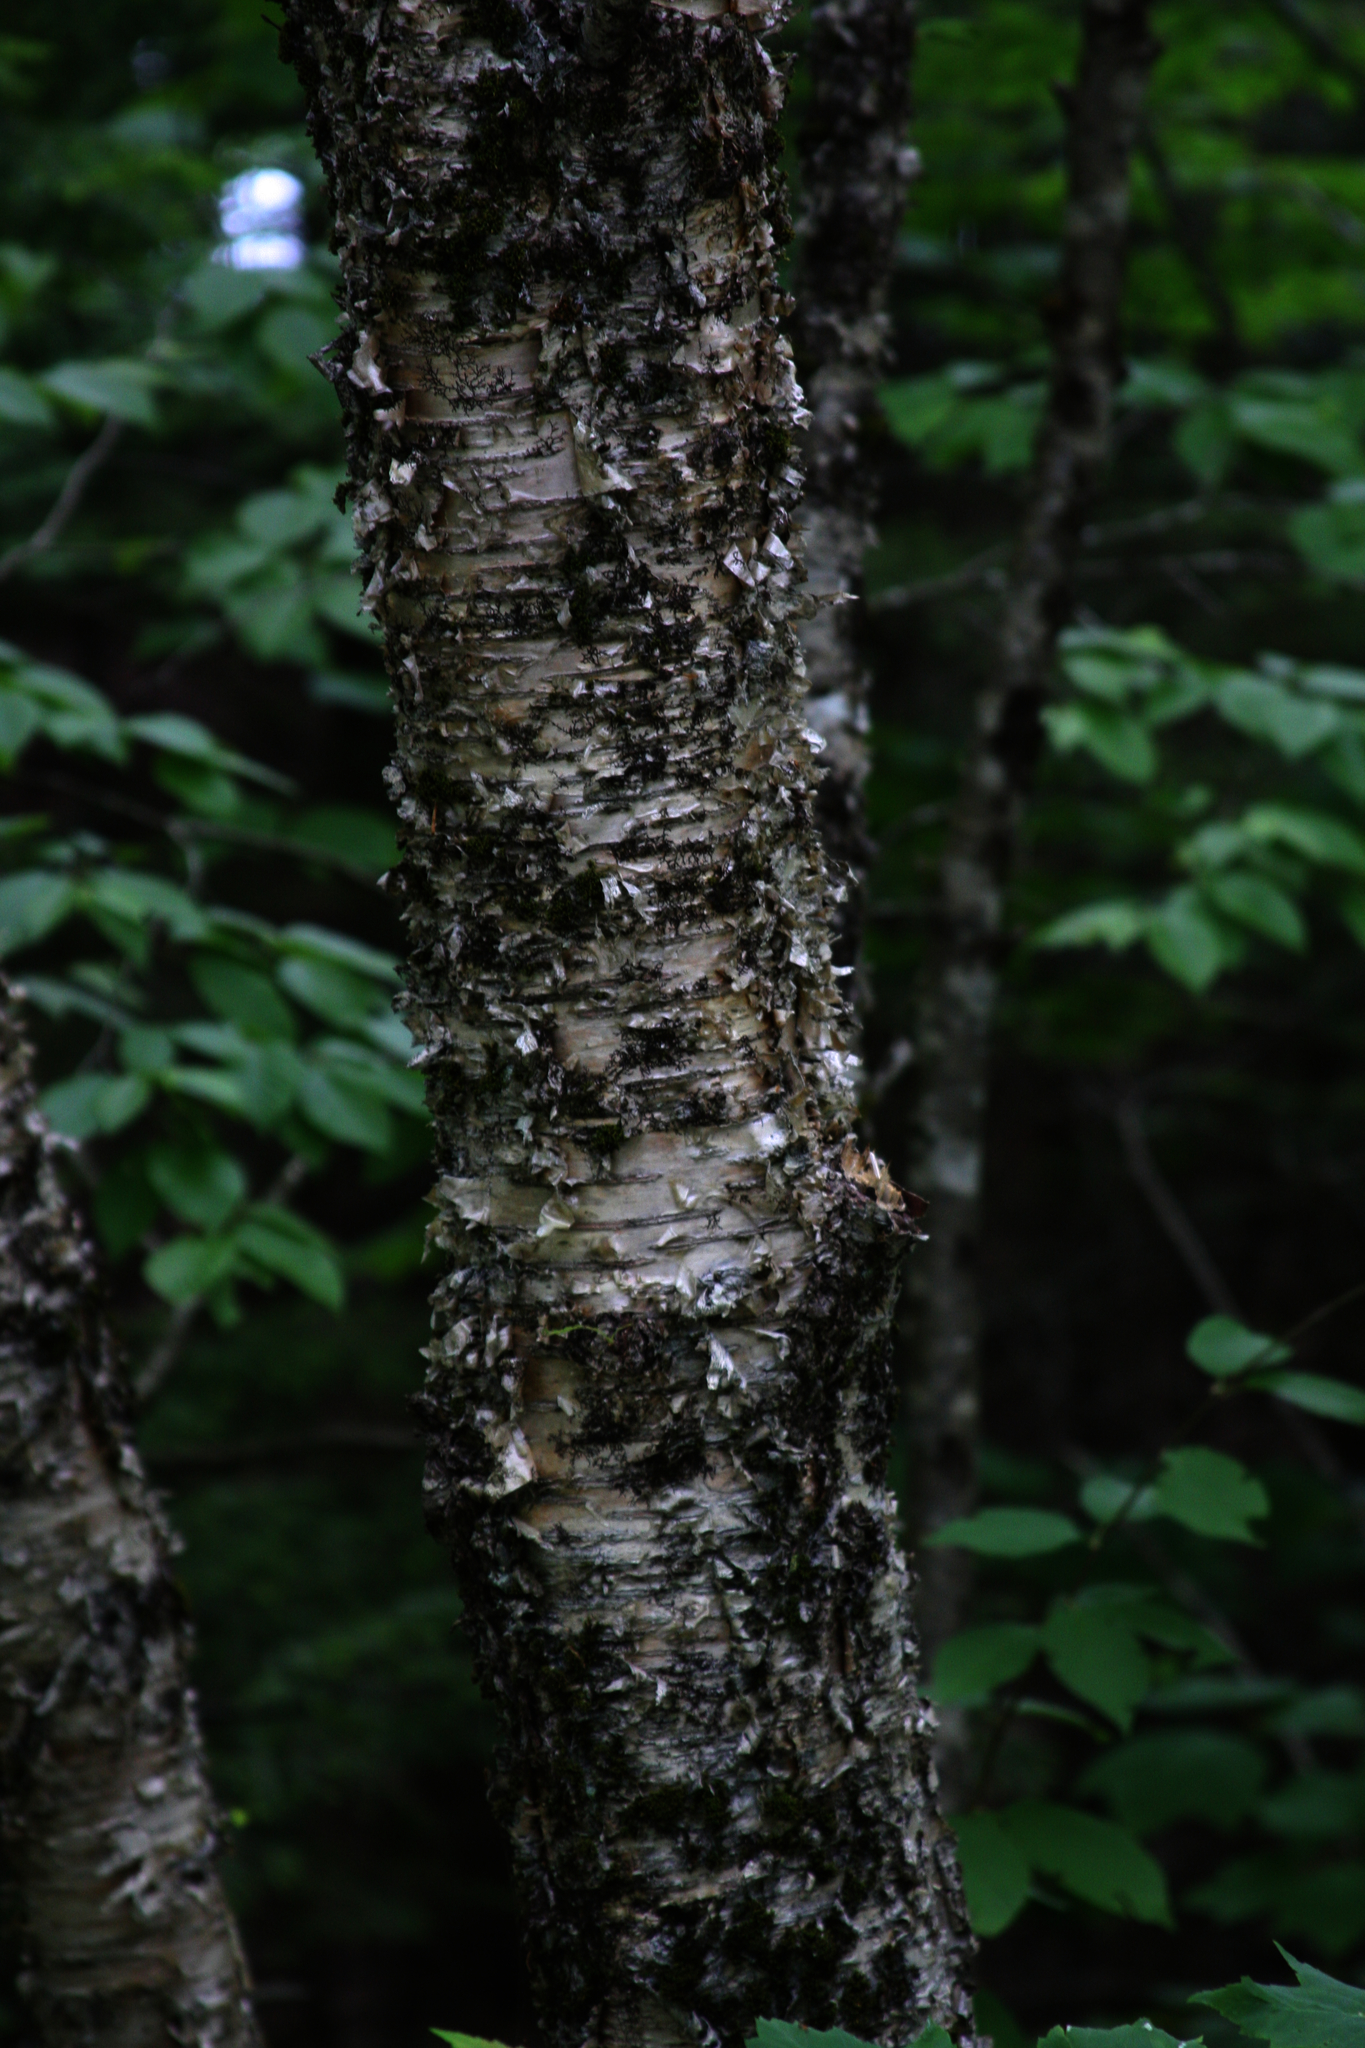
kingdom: Plantae
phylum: Bryophyta
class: Bryopsida
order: Orthotrichales
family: Orthotrichaceae
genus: Ulota
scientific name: Ulota crispa
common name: Crisped pincushion moss
